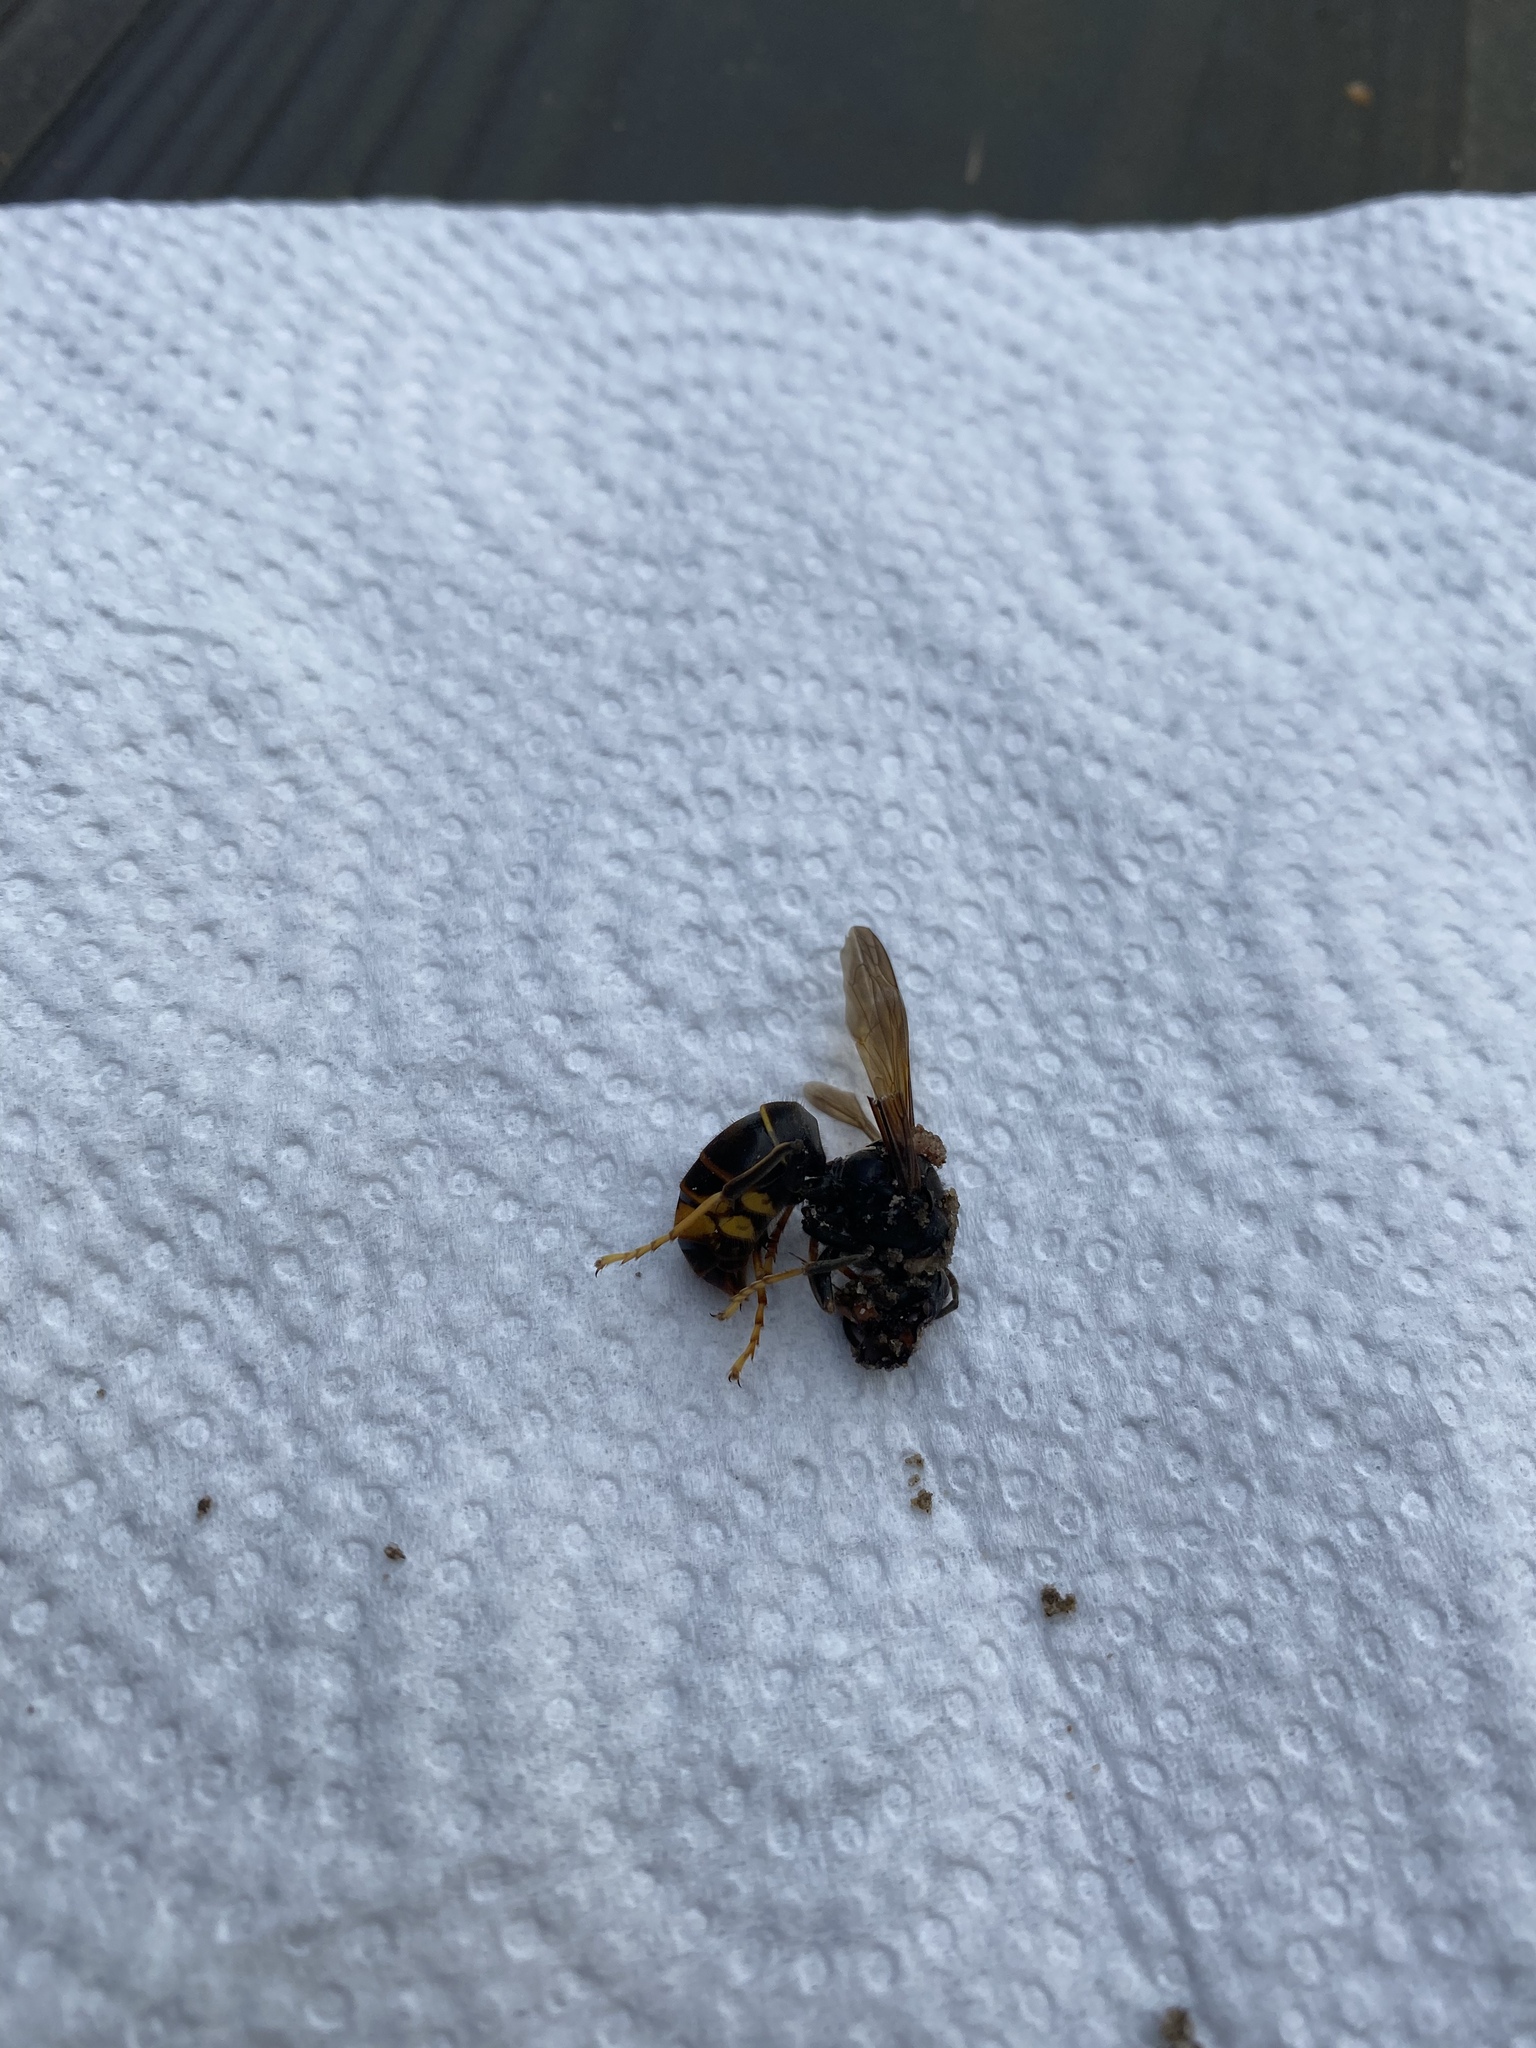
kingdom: Animalia
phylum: Arthropoda
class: Insecta
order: Hymenoptera
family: Vespidae
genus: Vespa
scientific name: Vespa velutina
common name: Asian hornet
